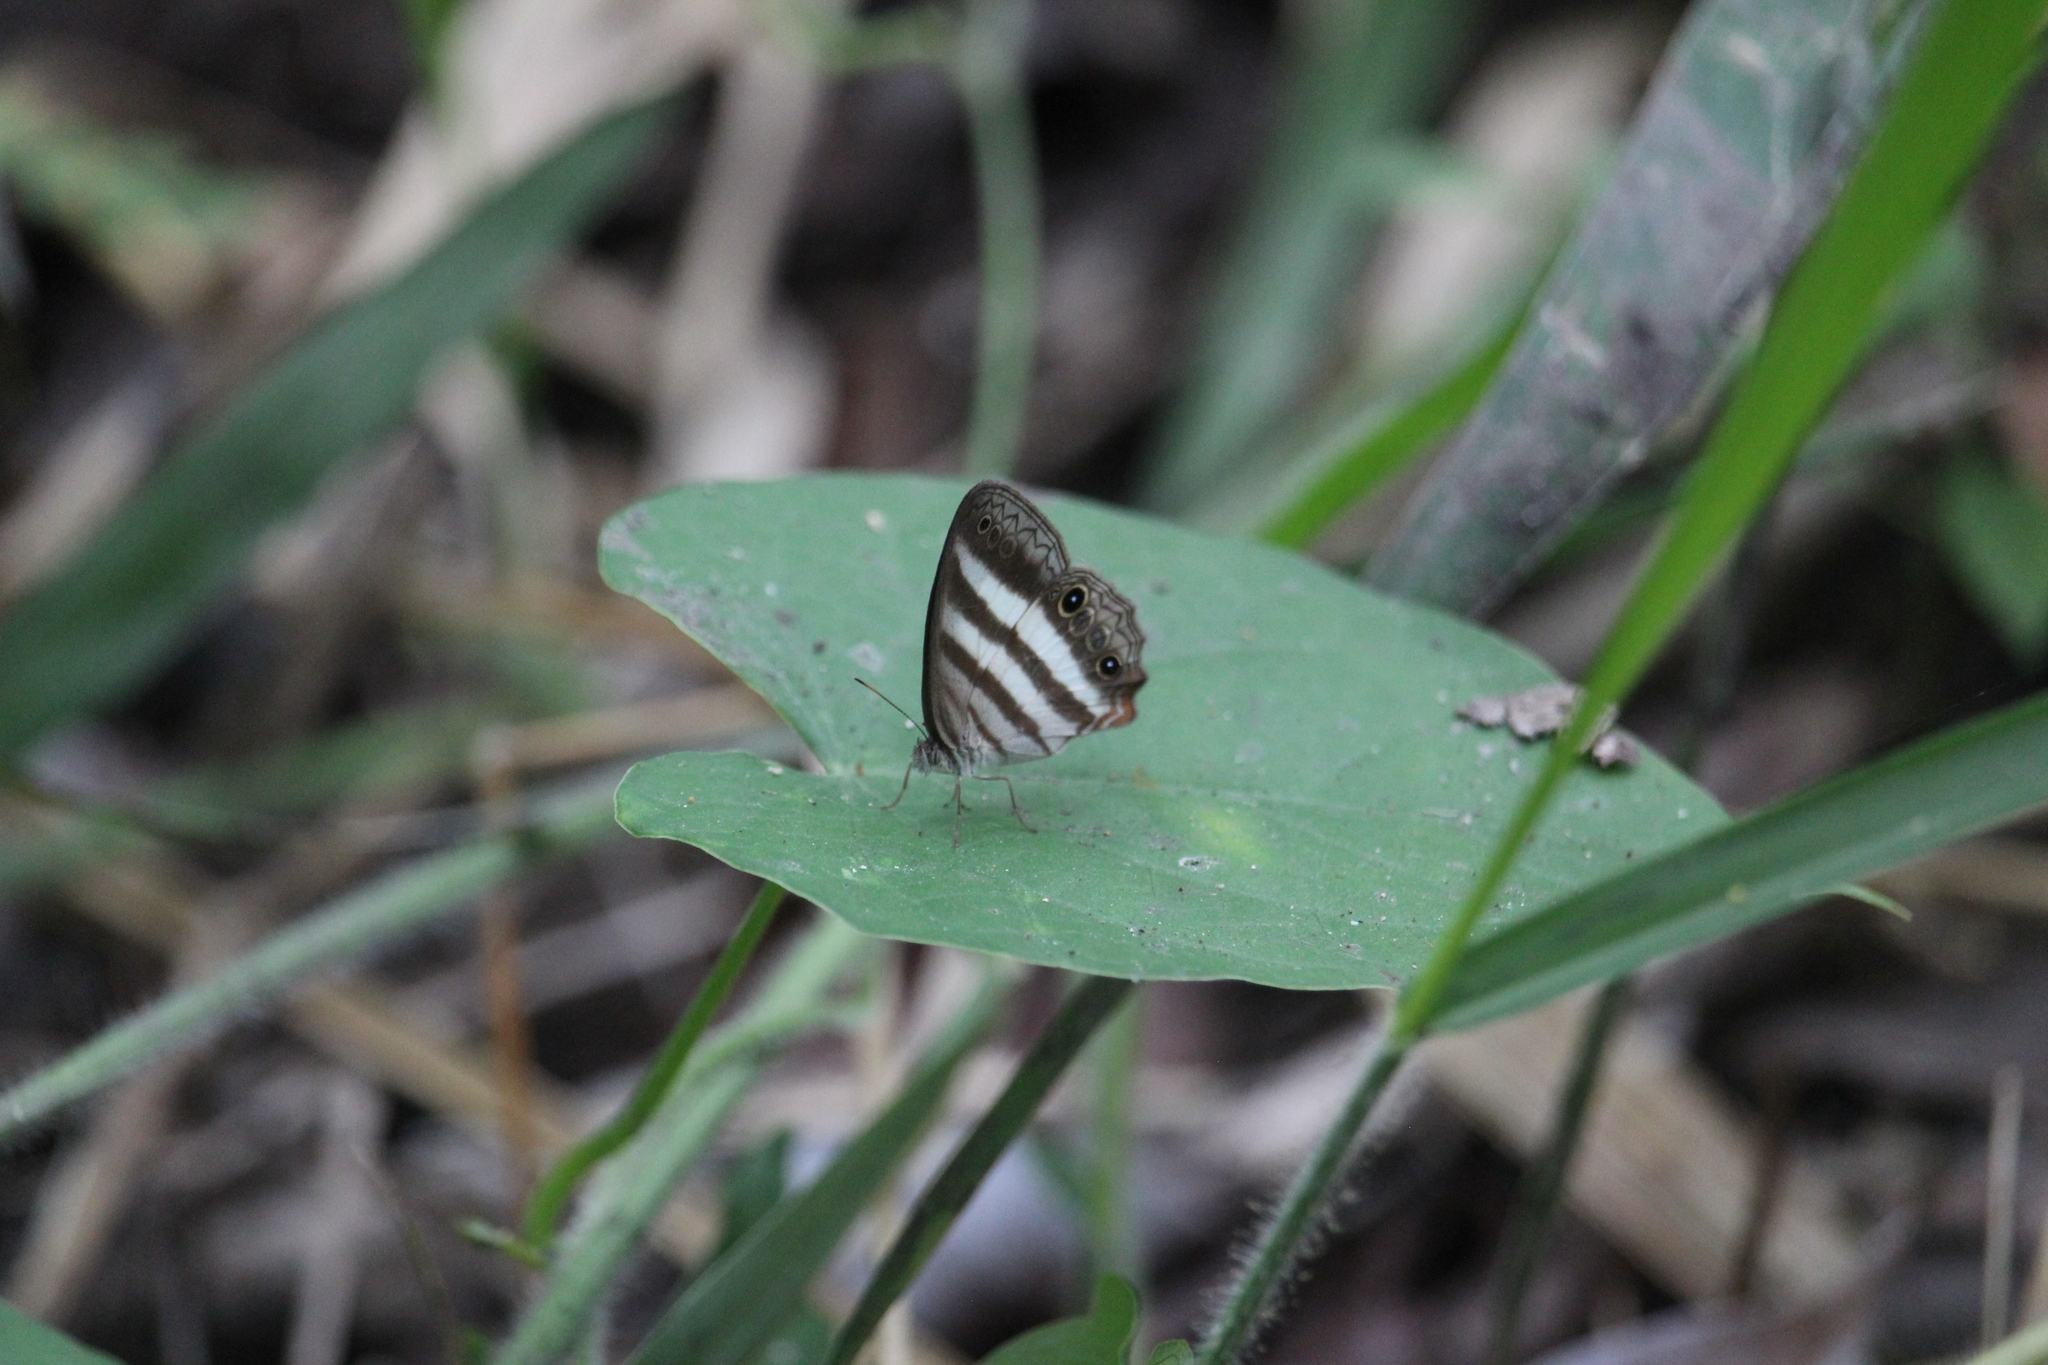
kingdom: Animalia
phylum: Arthropoda
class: Insecta
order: Lepidoptera
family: Nymphalidae
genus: Pareuptychia
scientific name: Pareuptychia hesione
